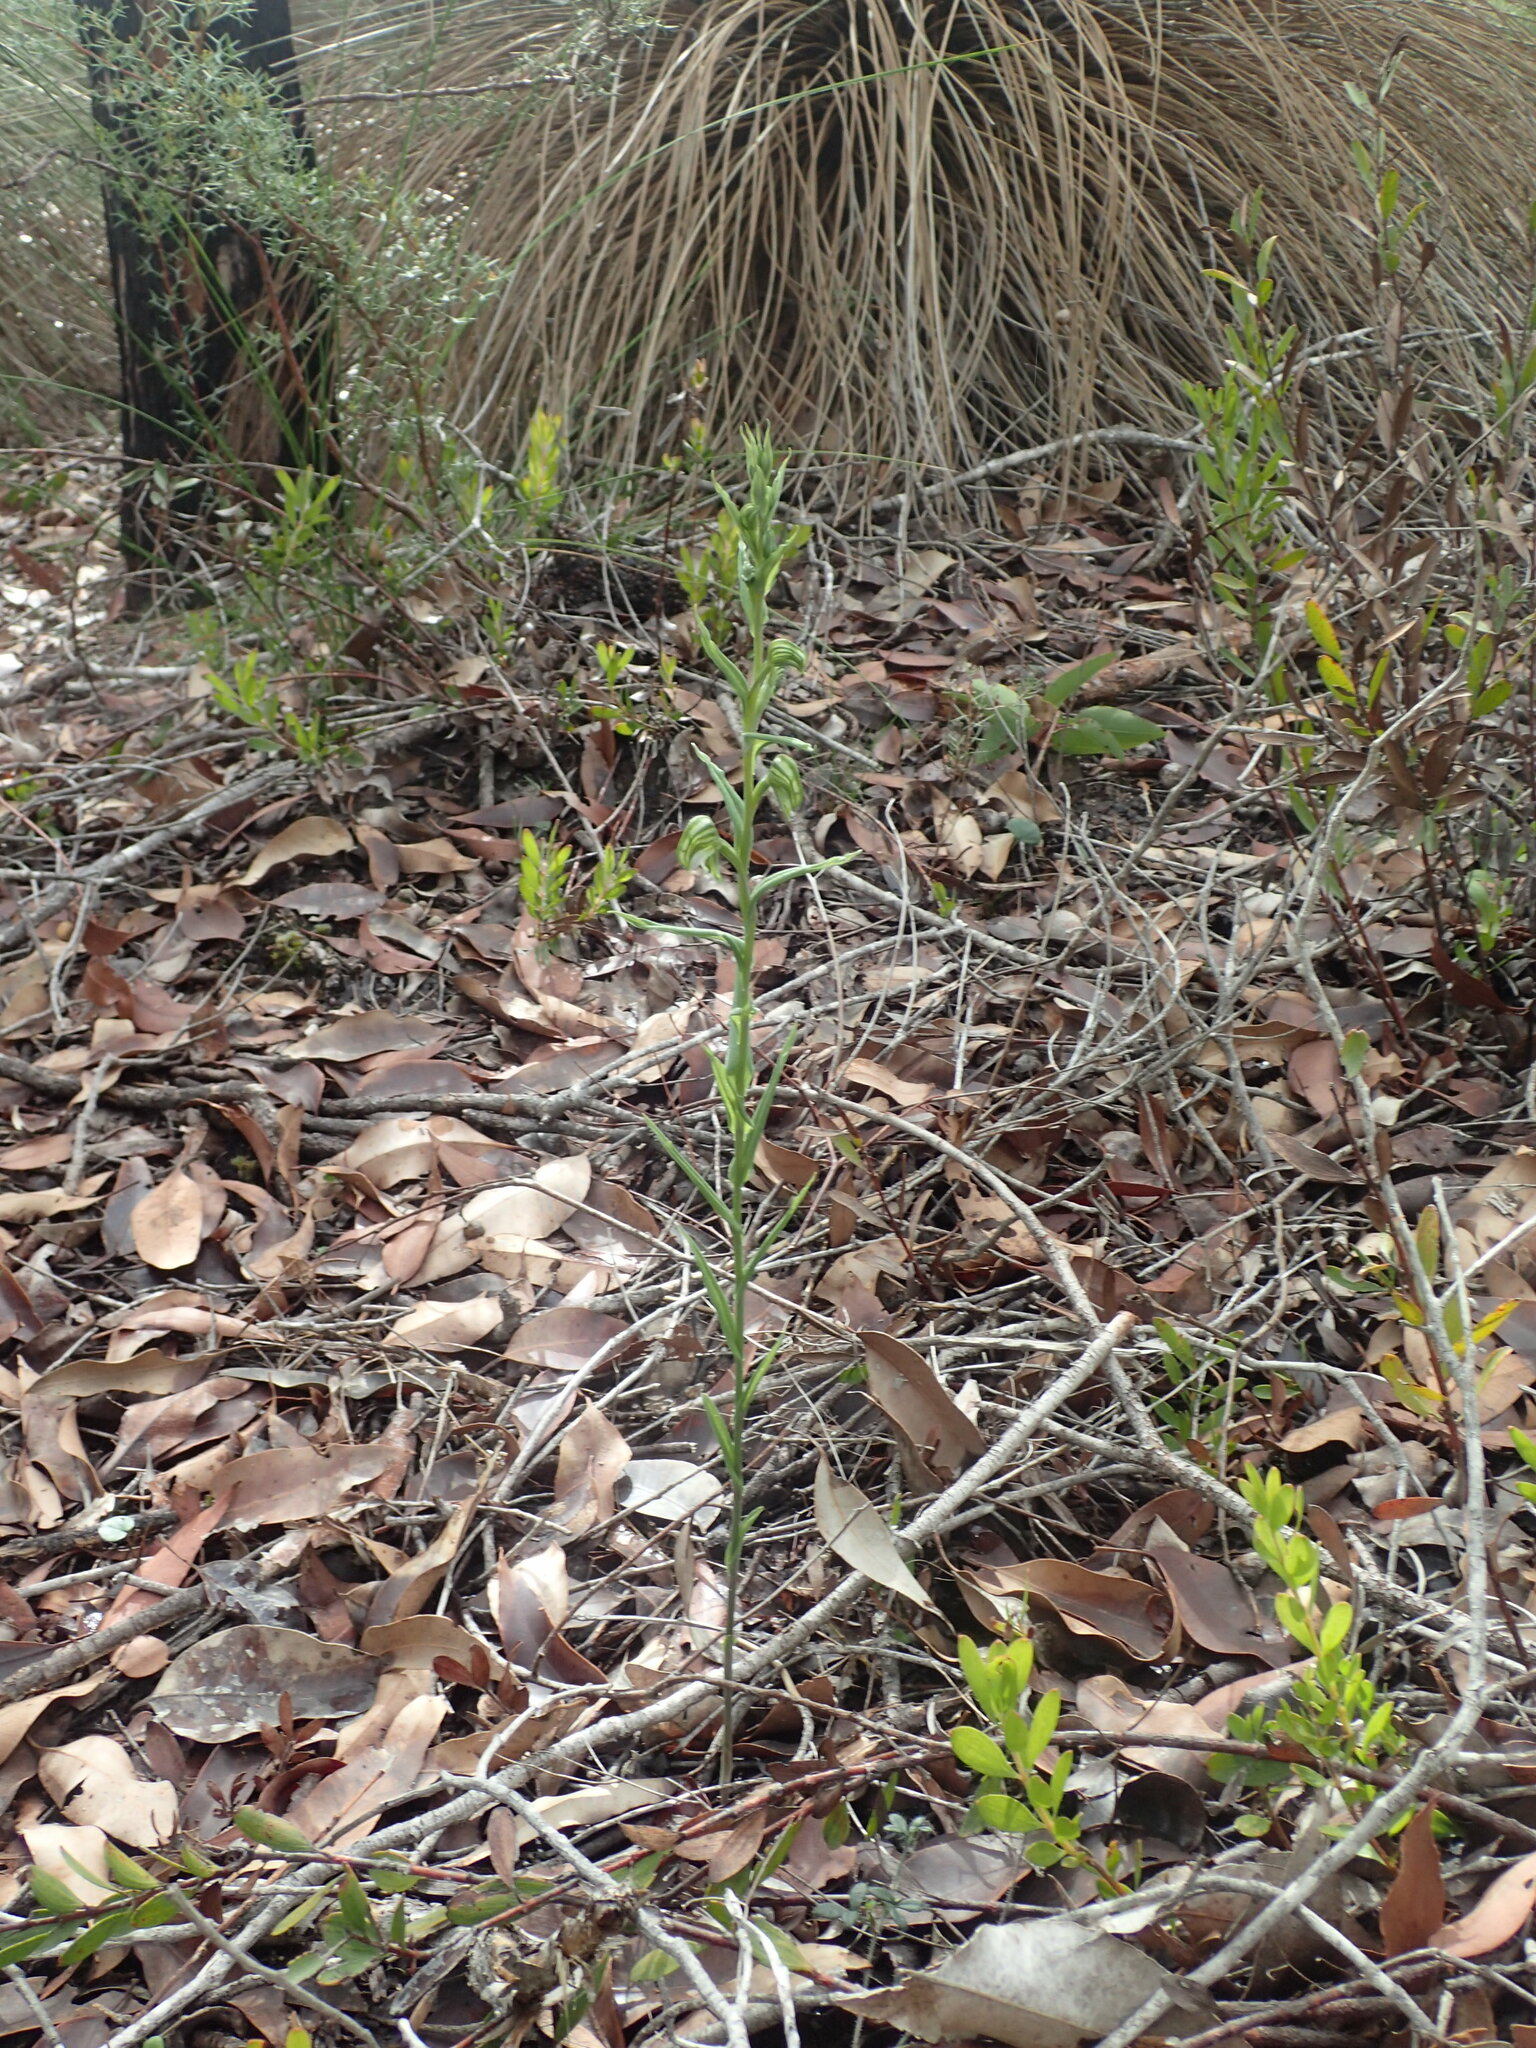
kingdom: Plantae
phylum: Tracheophyta
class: Liliopsida
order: Asparagales
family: Orchidaceae
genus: Pterostylis
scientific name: Pterostylis vittata
